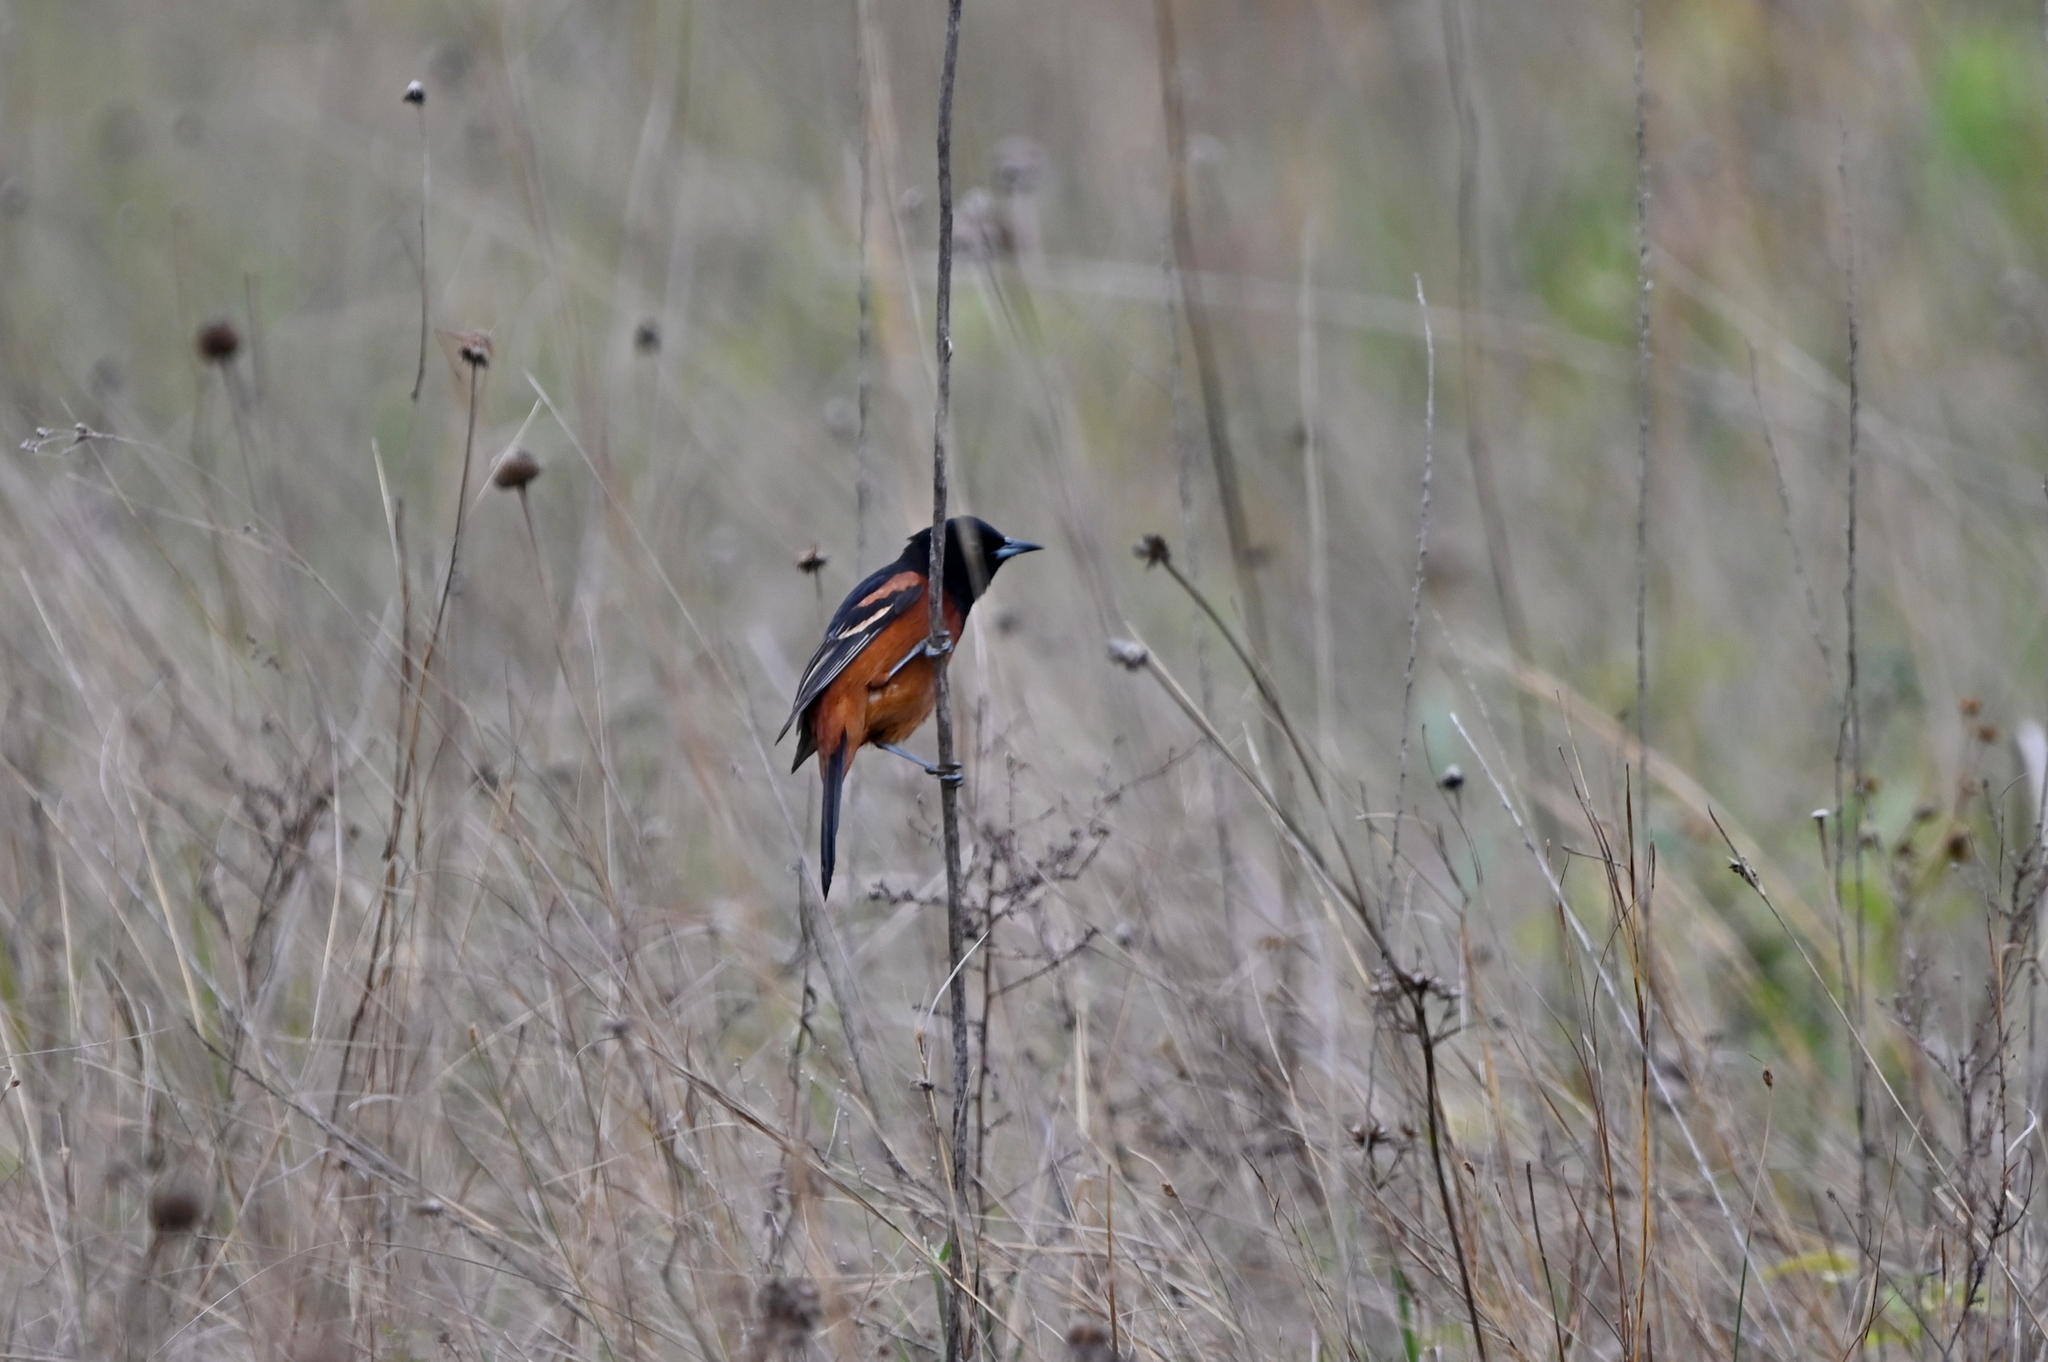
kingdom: Animalia
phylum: Chordata
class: Aves
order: Passeriformes
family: Icteridae
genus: Icterus
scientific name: Icterus spurius
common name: Orchard oriole
